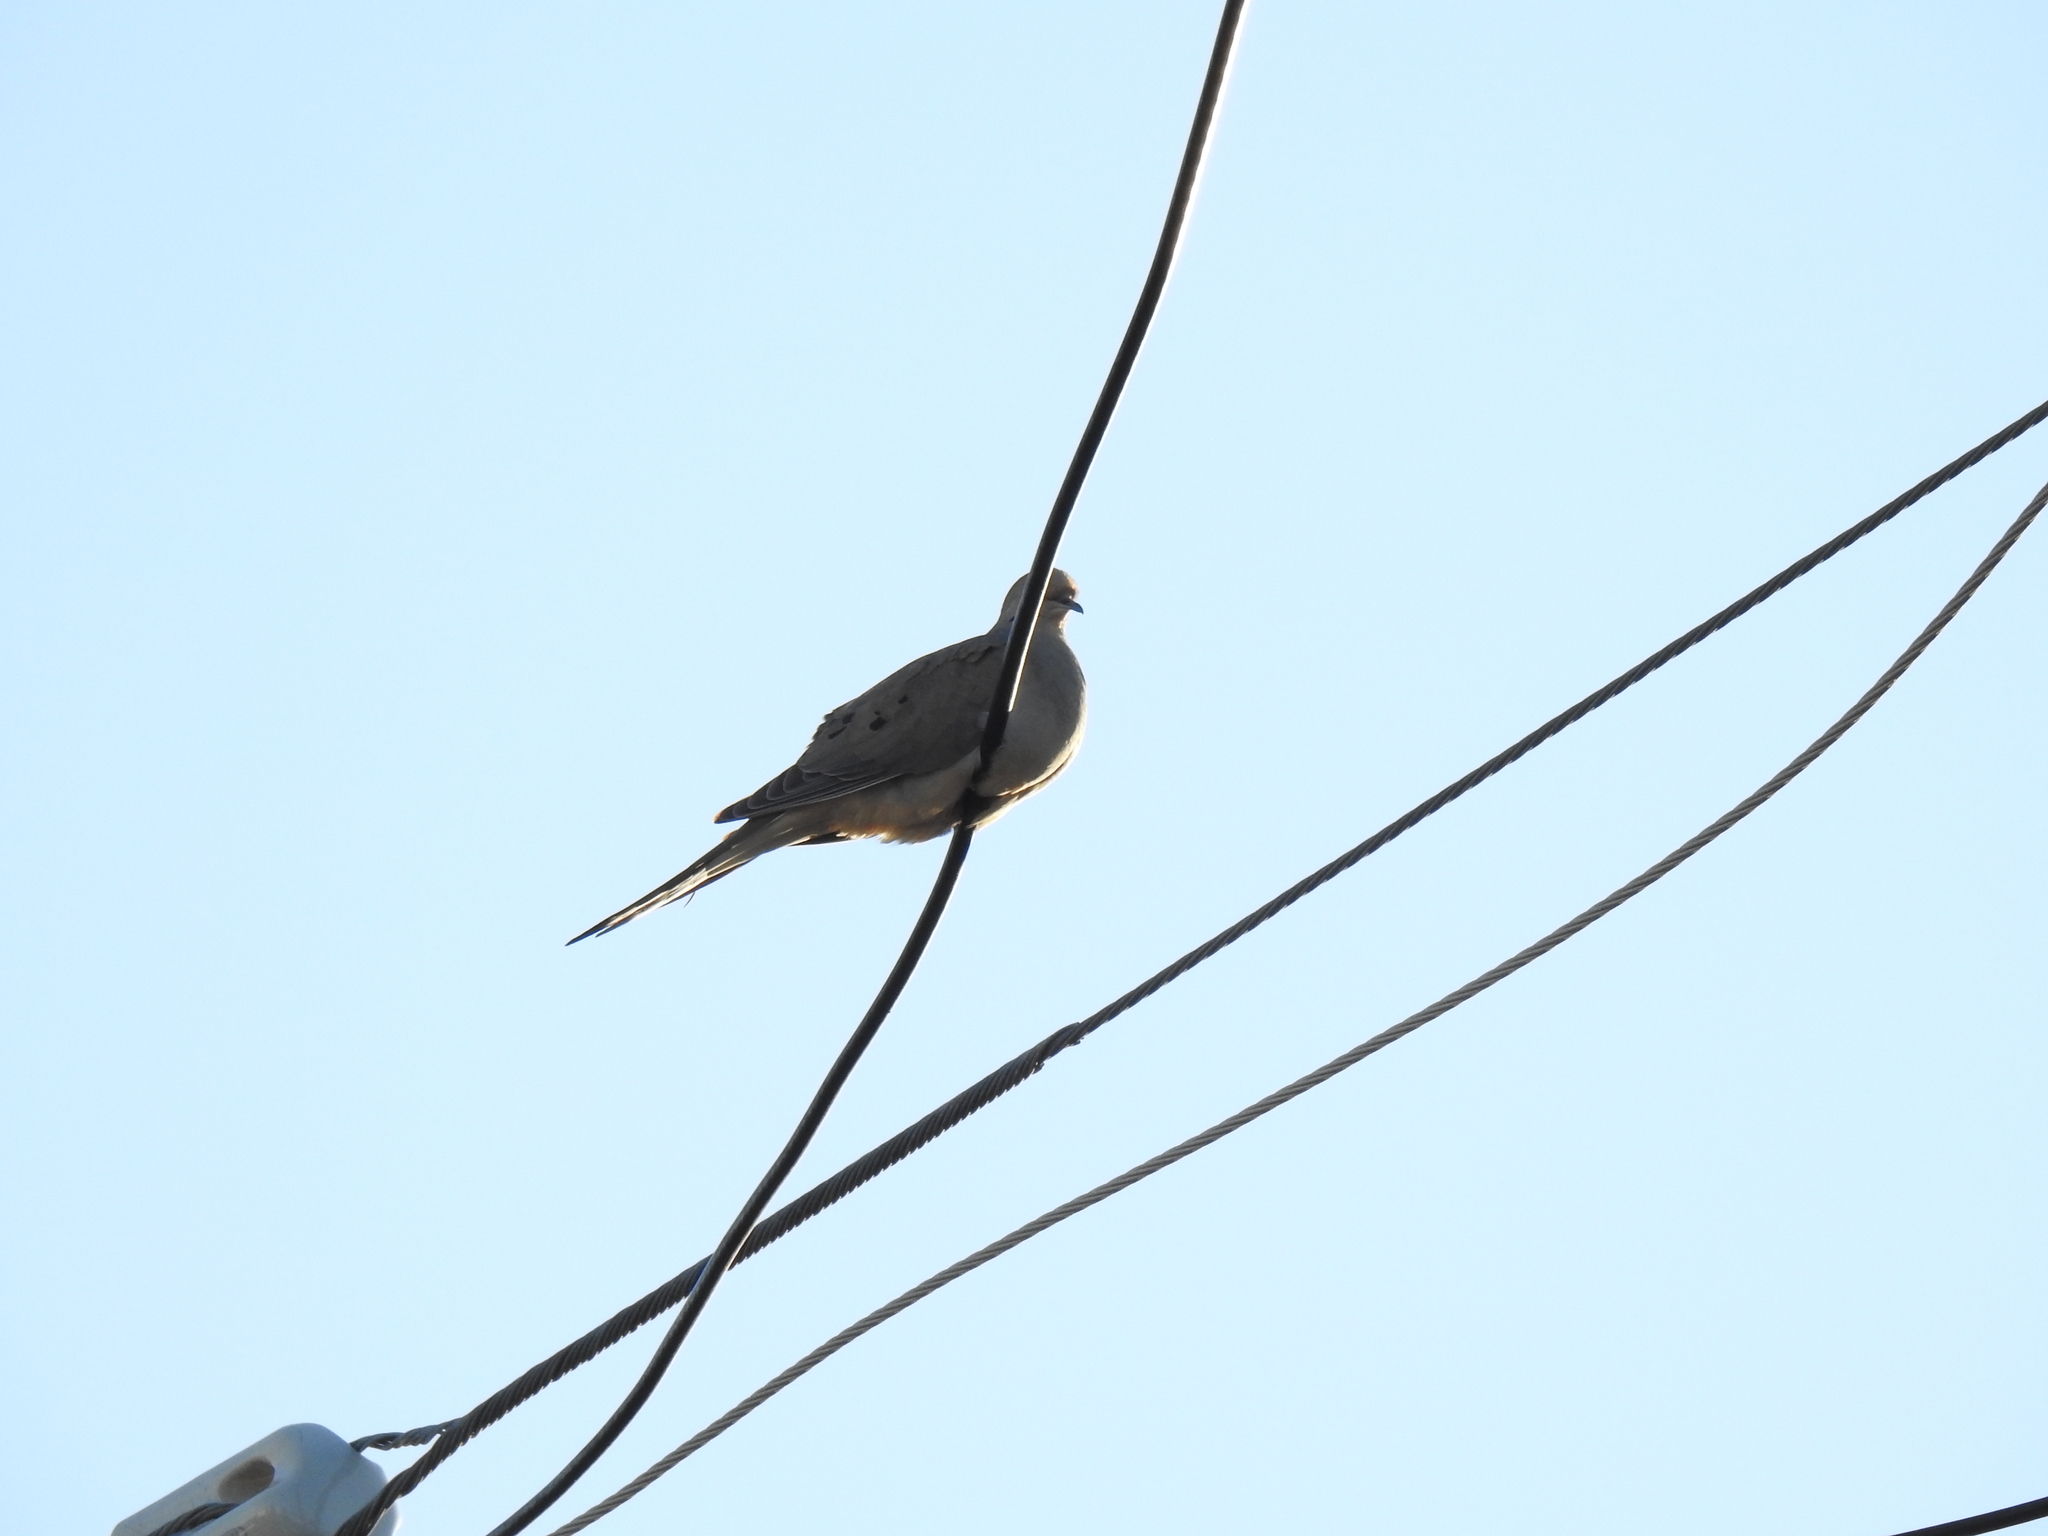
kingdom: Animalia
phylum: Chordata
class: Aves
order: Columbiformes
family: Columbidae
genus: Zenaida
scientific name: Zenaida macroura
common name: Mourning dove
